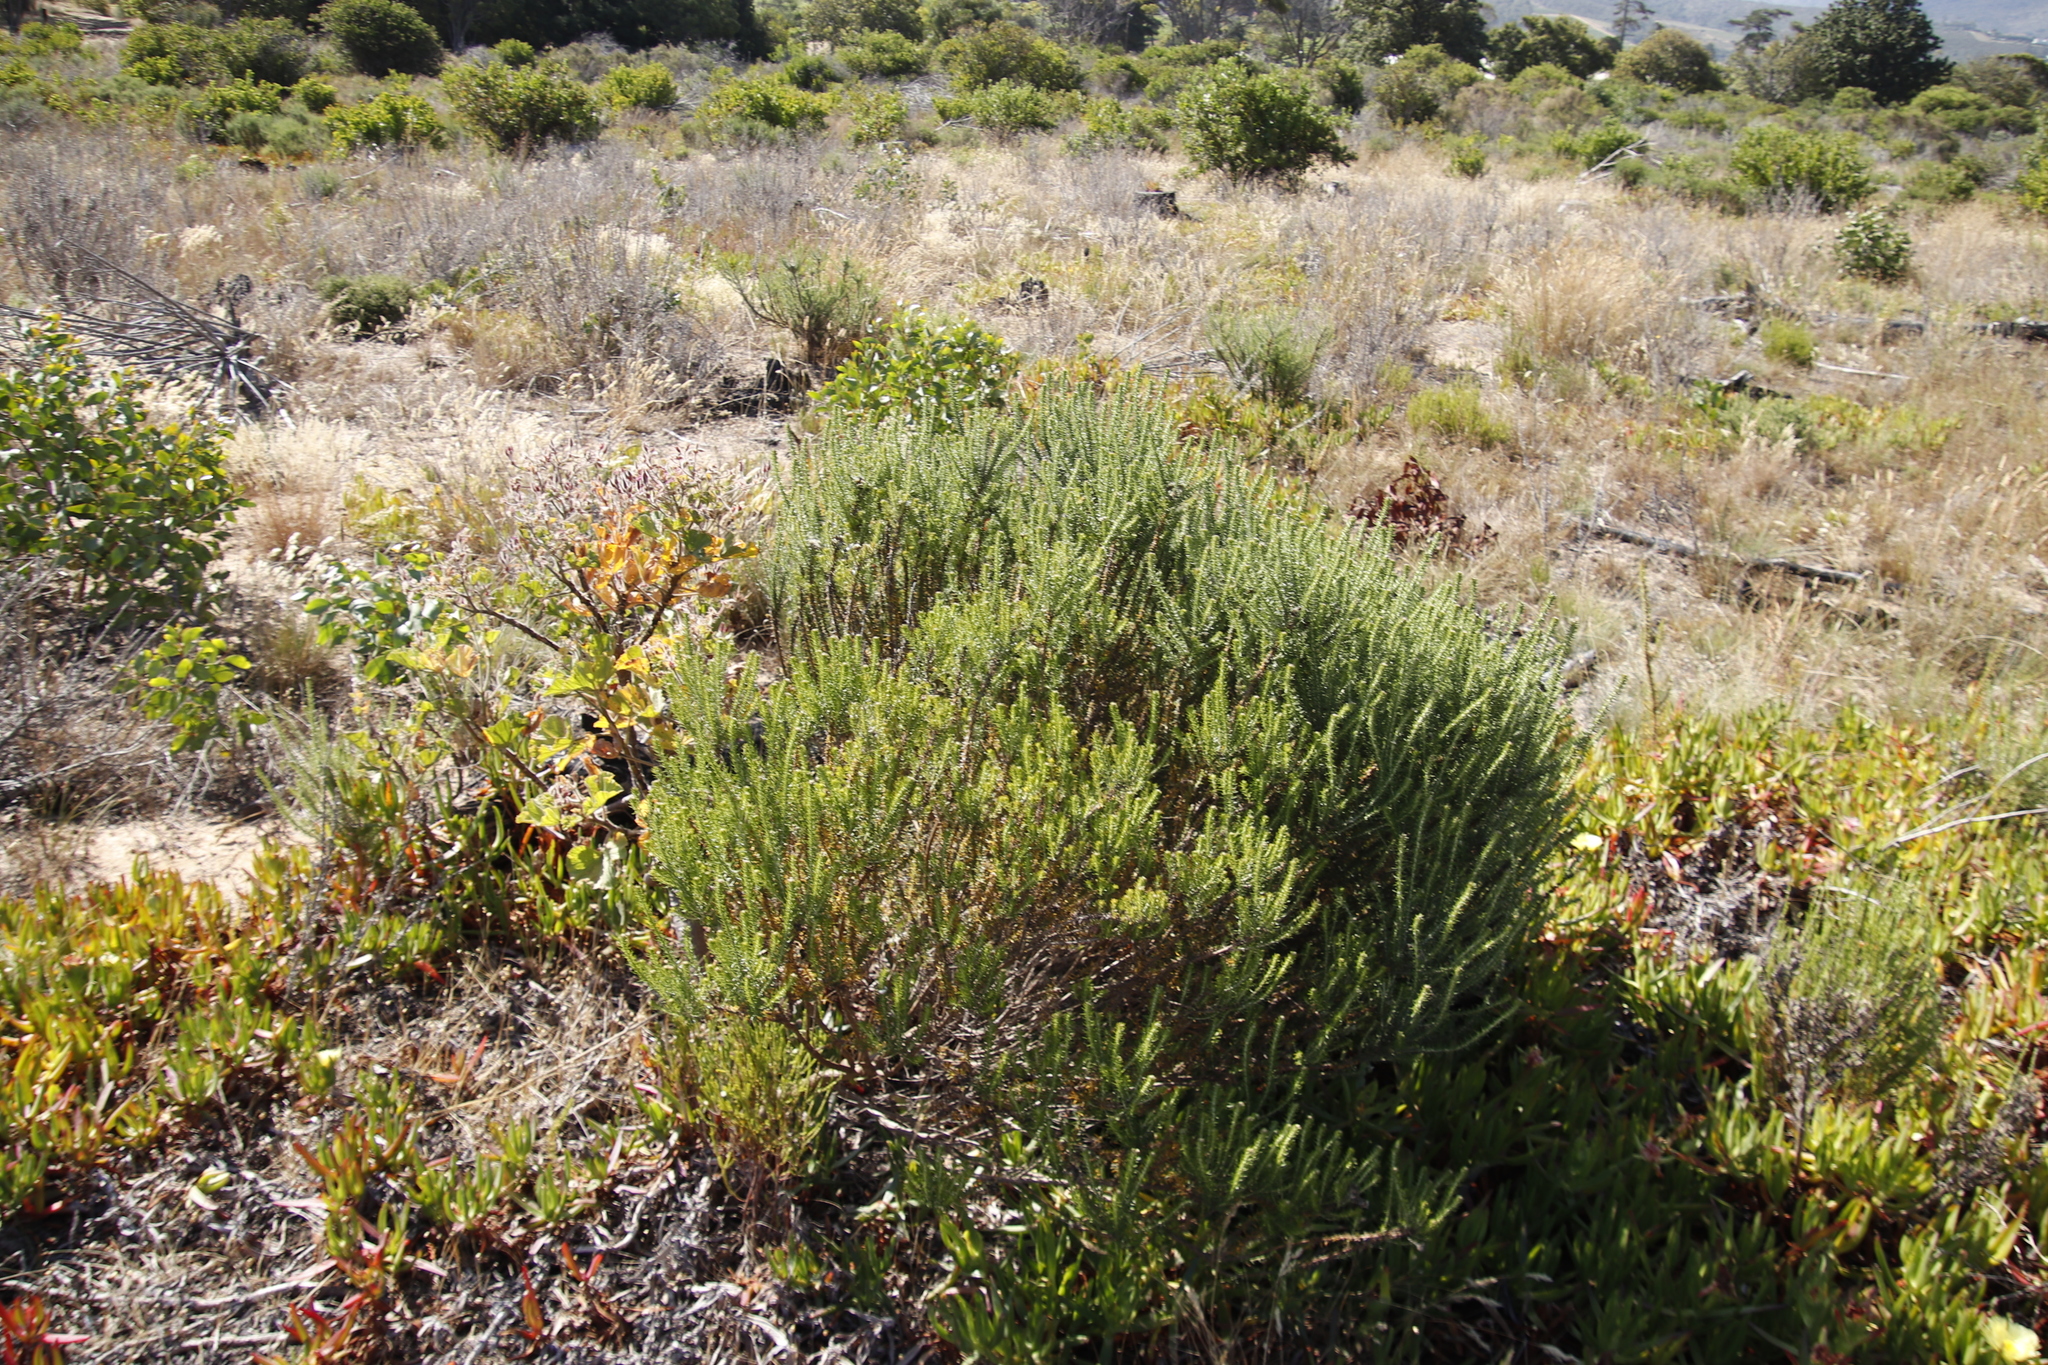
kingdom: Plantae
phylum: Tracheophyta
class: Magnoliopsida
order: Asterales
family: Asteraceae
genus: Metalasia
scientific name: Metalasia densa
